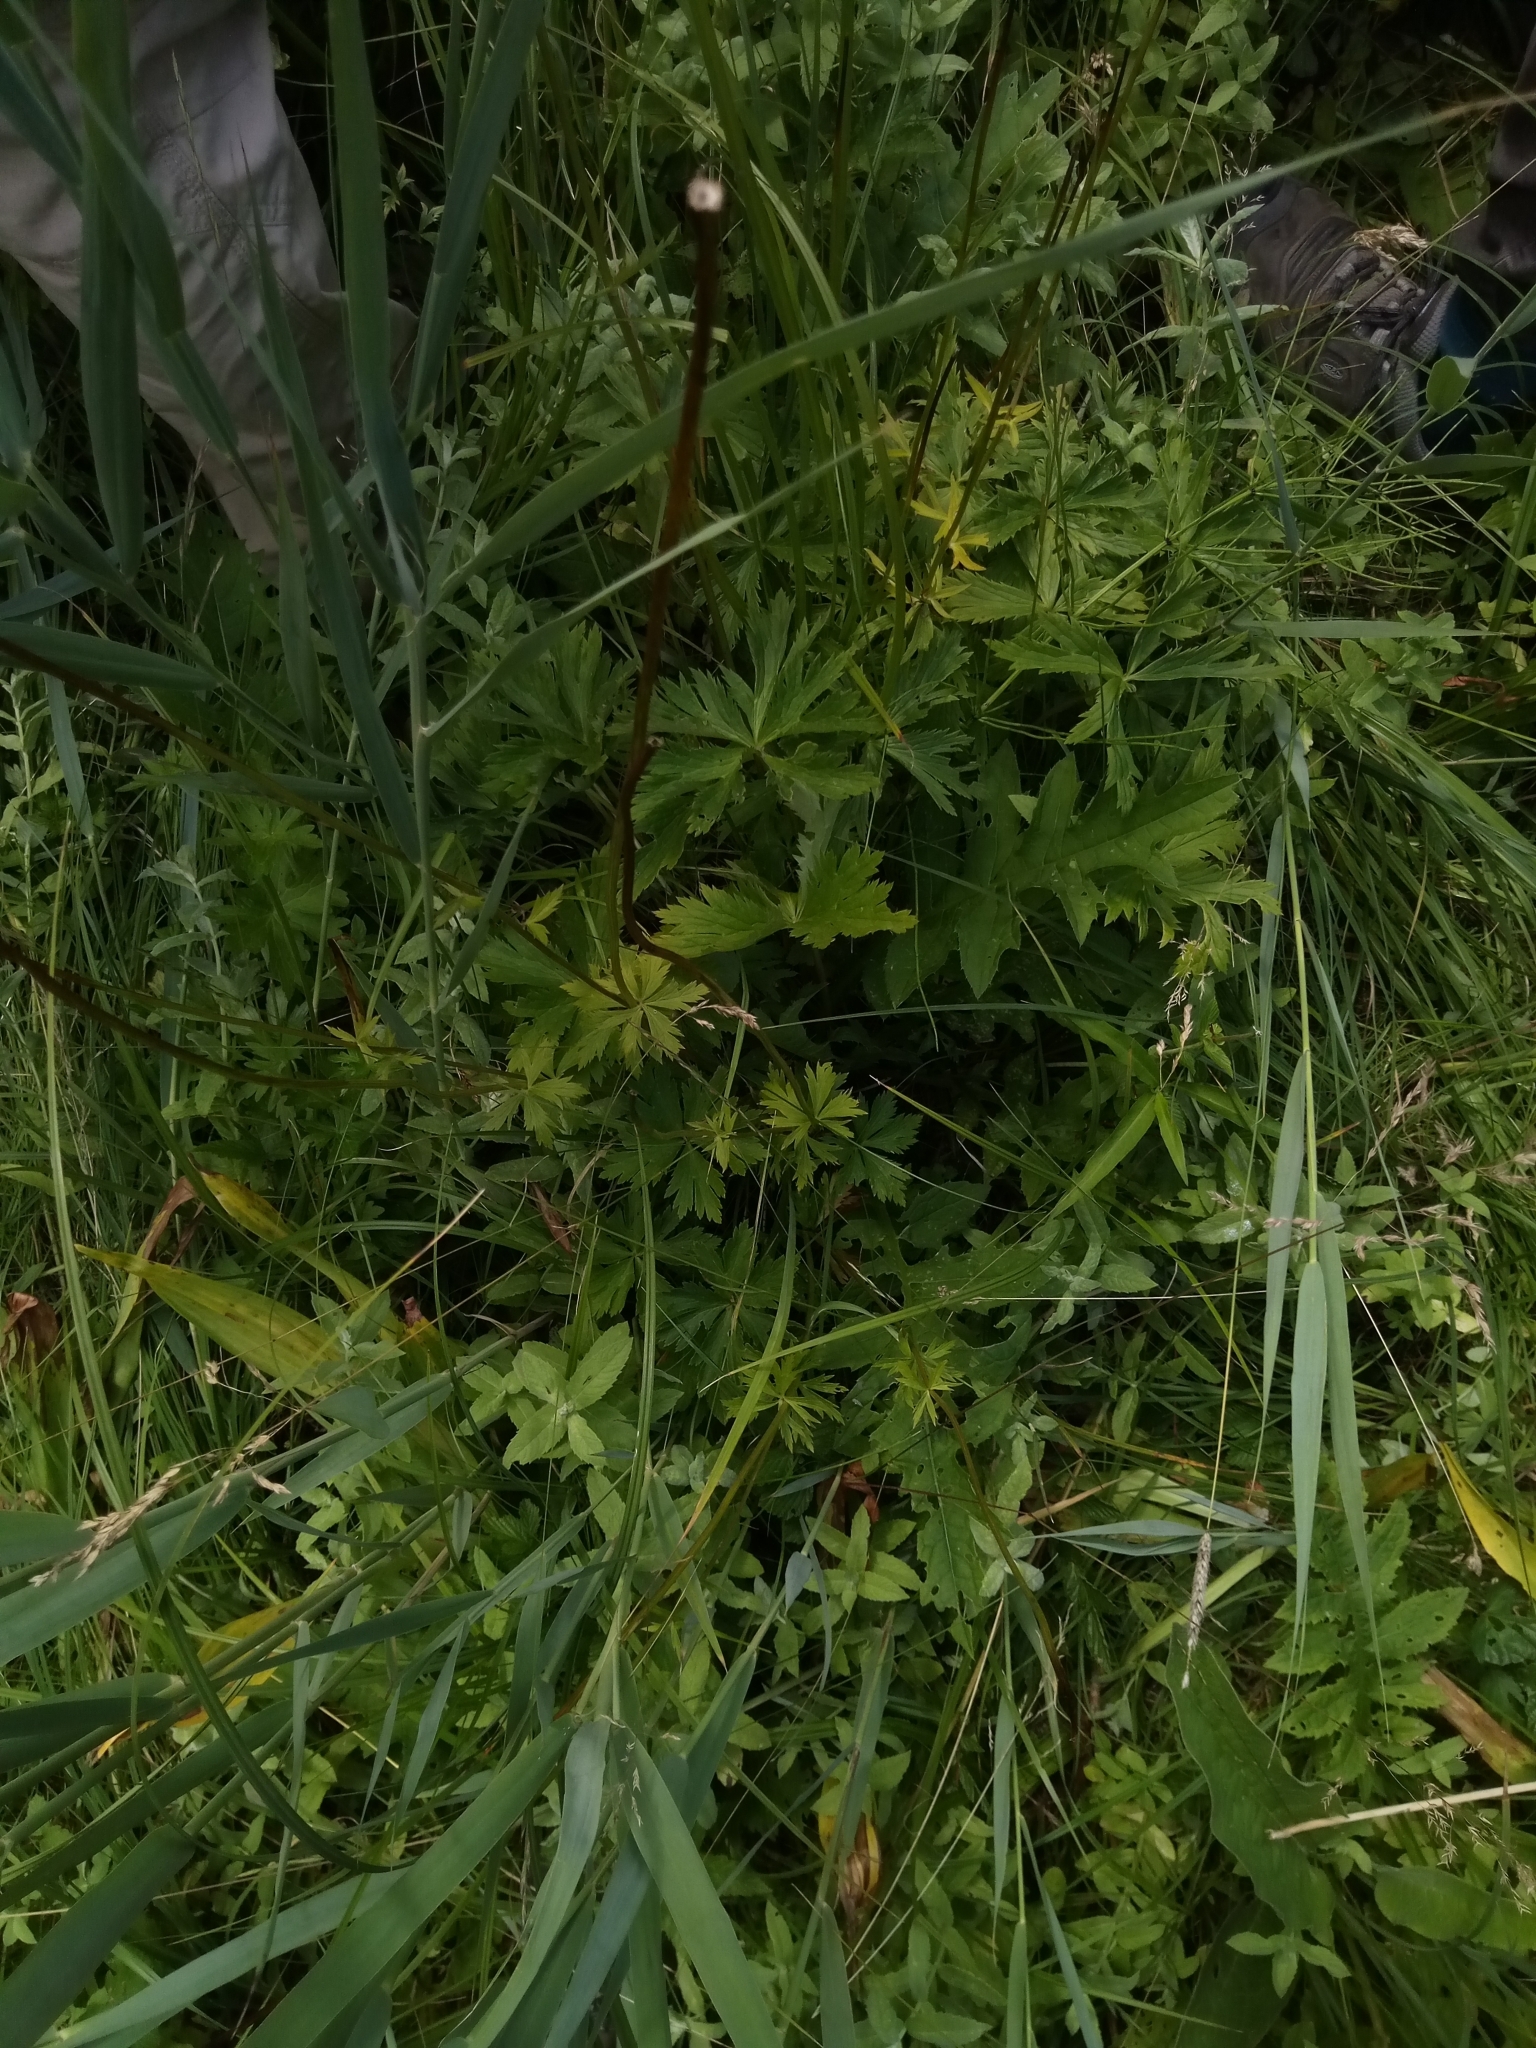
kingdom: Plantae
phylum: Tracheophyta
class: Magnoliopsida
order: Ranunculales
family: Ranunculaceae
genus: Trollius
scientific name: Trollius europaeus
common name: European globeflower
